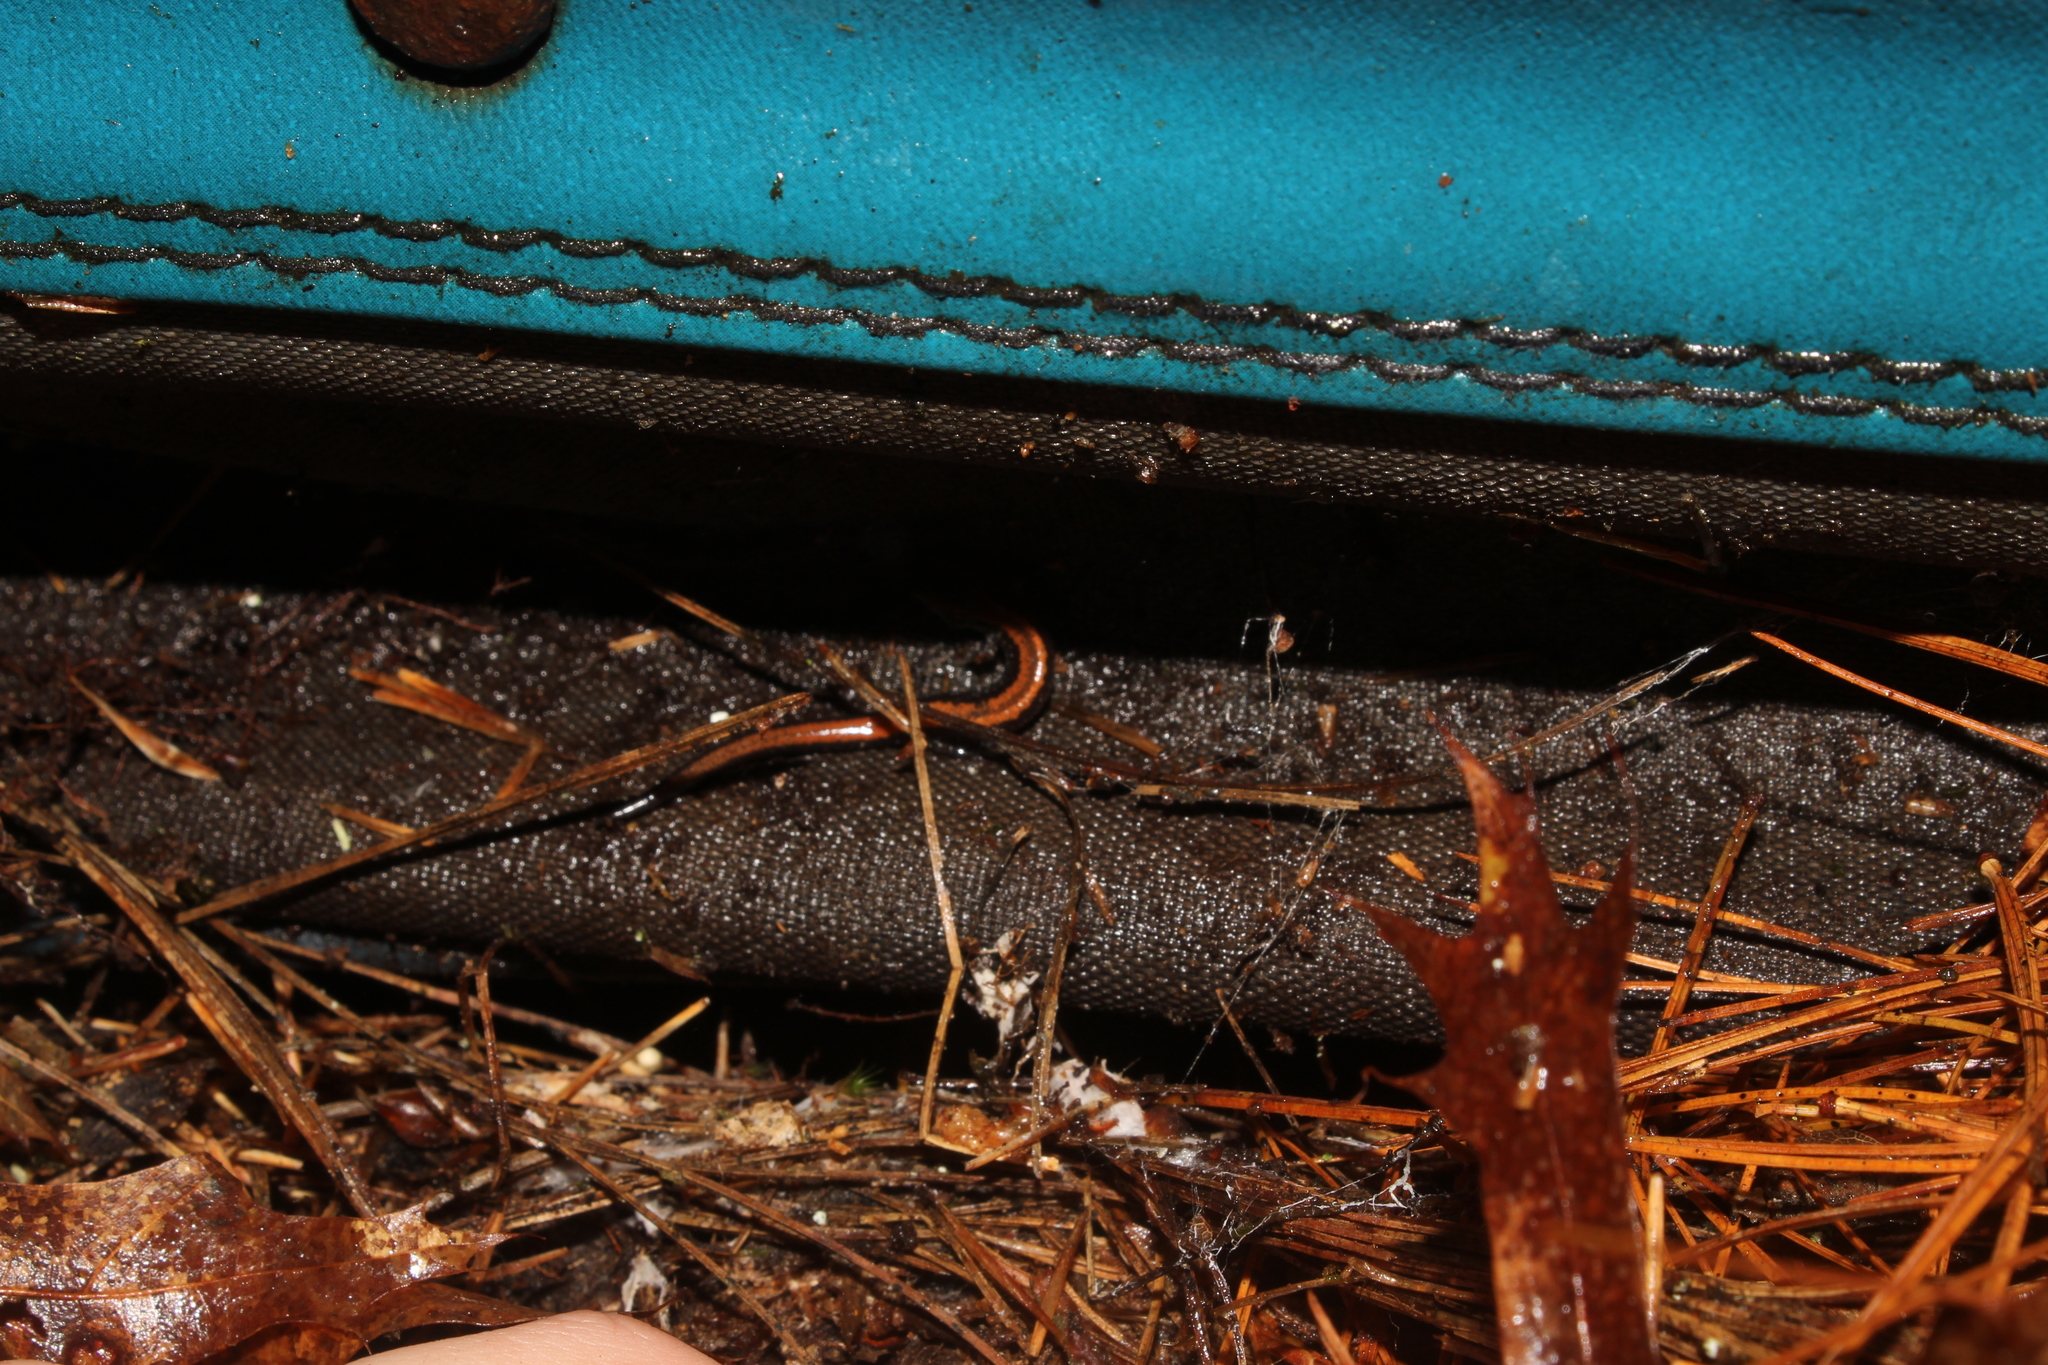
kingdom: Animalia
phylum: Chordata
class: Amphibia
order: Caudata
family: Plethodontidae
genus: Plethodon
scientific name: Plethodon cinereus
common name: Redback salamander
